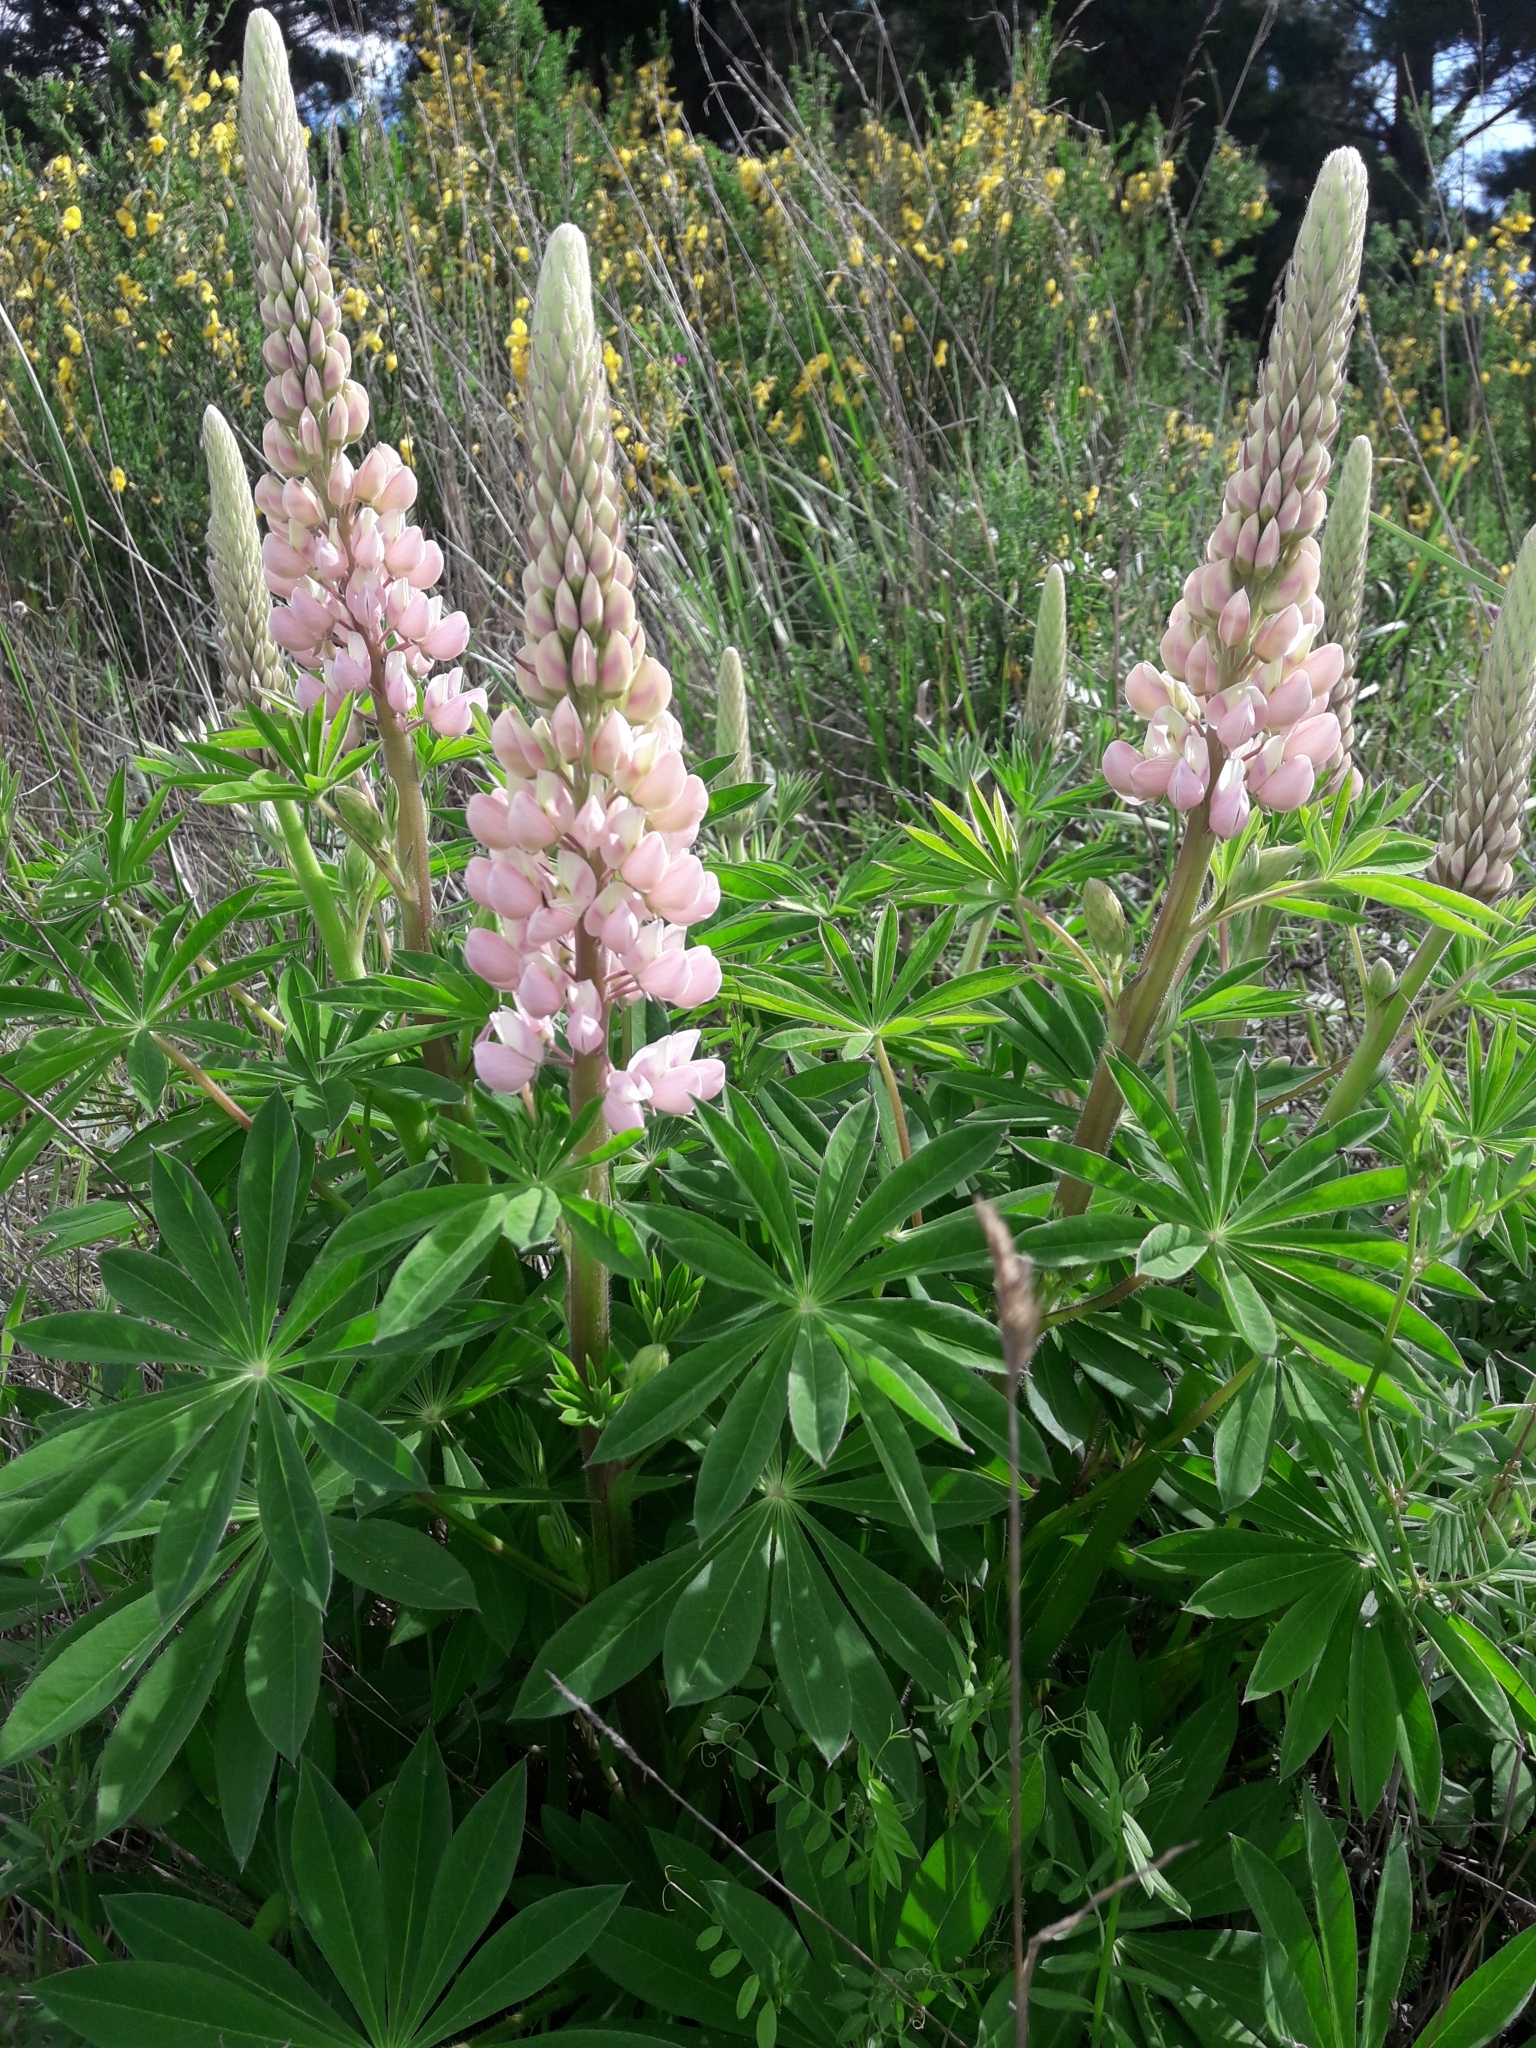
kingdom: Plantae
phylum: Tracheophyta
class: Magnoliopsida
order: Fabales
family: Fabaceae
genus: Lupinus
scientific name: Lupinus polyphyllus
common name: Garden lupin
